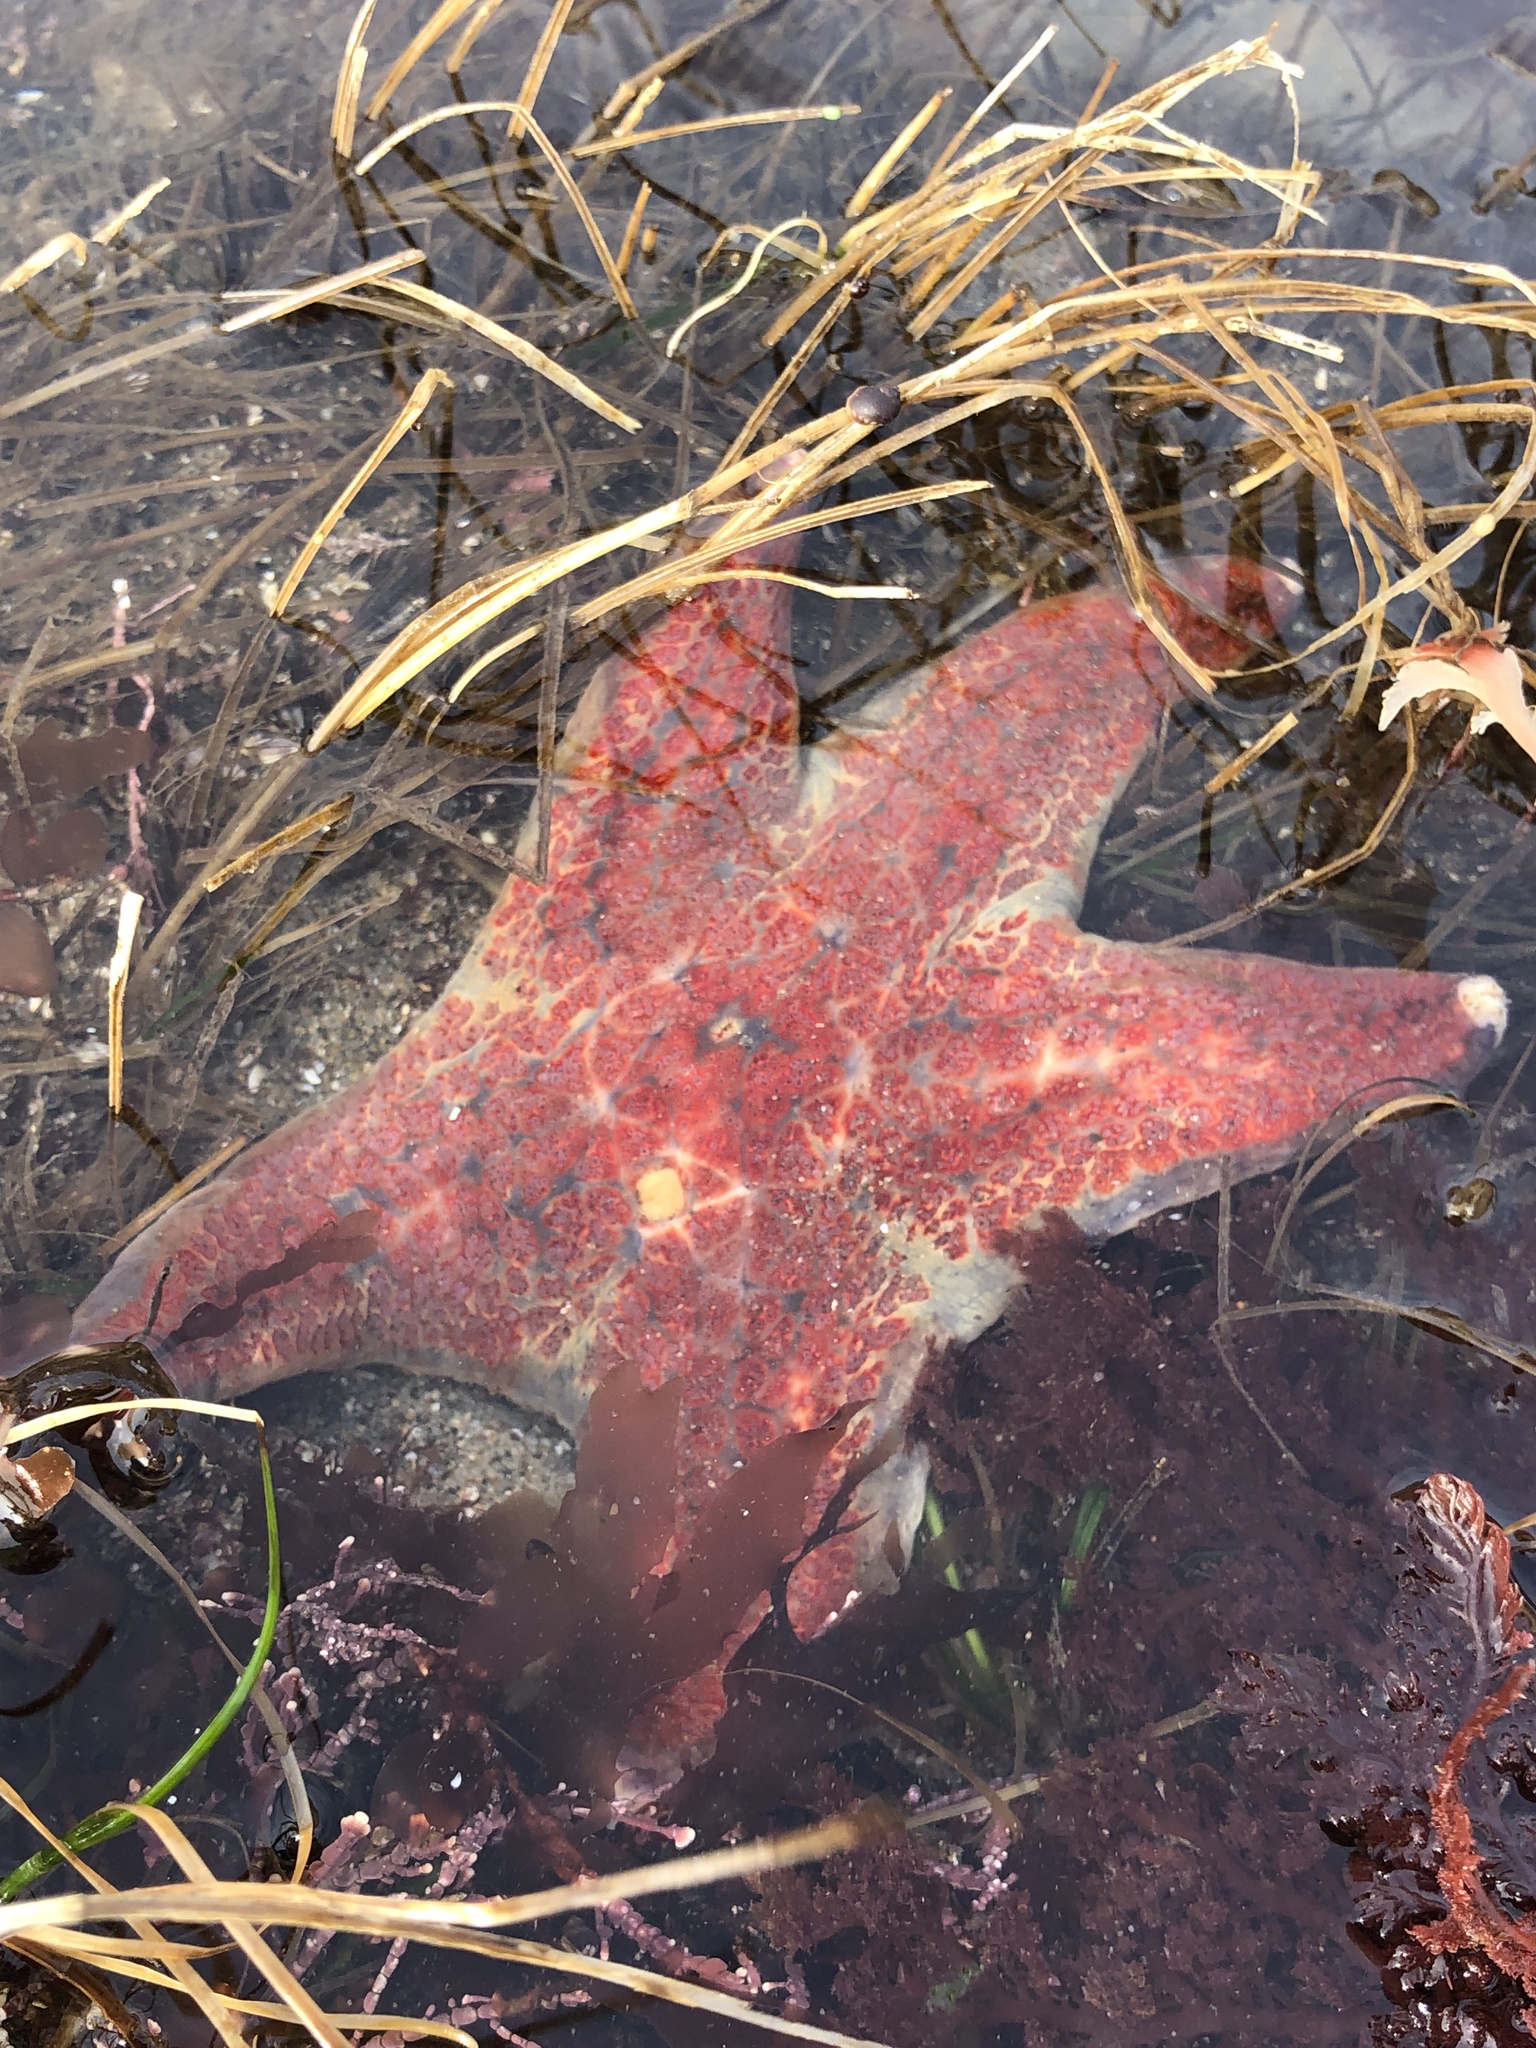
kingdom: Animalia
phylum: Echinodermata
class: Asteroidea
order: Valvatida
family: Asteropseidae
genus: Dermasterias
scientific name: Dermasterias imbricata
